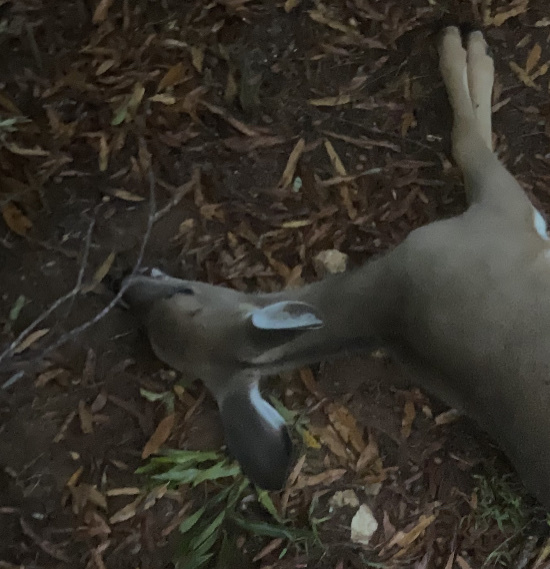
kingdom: Animalia
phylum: Chordata
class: Mammalia
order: Artiodactyla
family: Cervidae
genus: Odocoileus
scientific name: Odocoileus virginianus
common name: White-tailed deer
